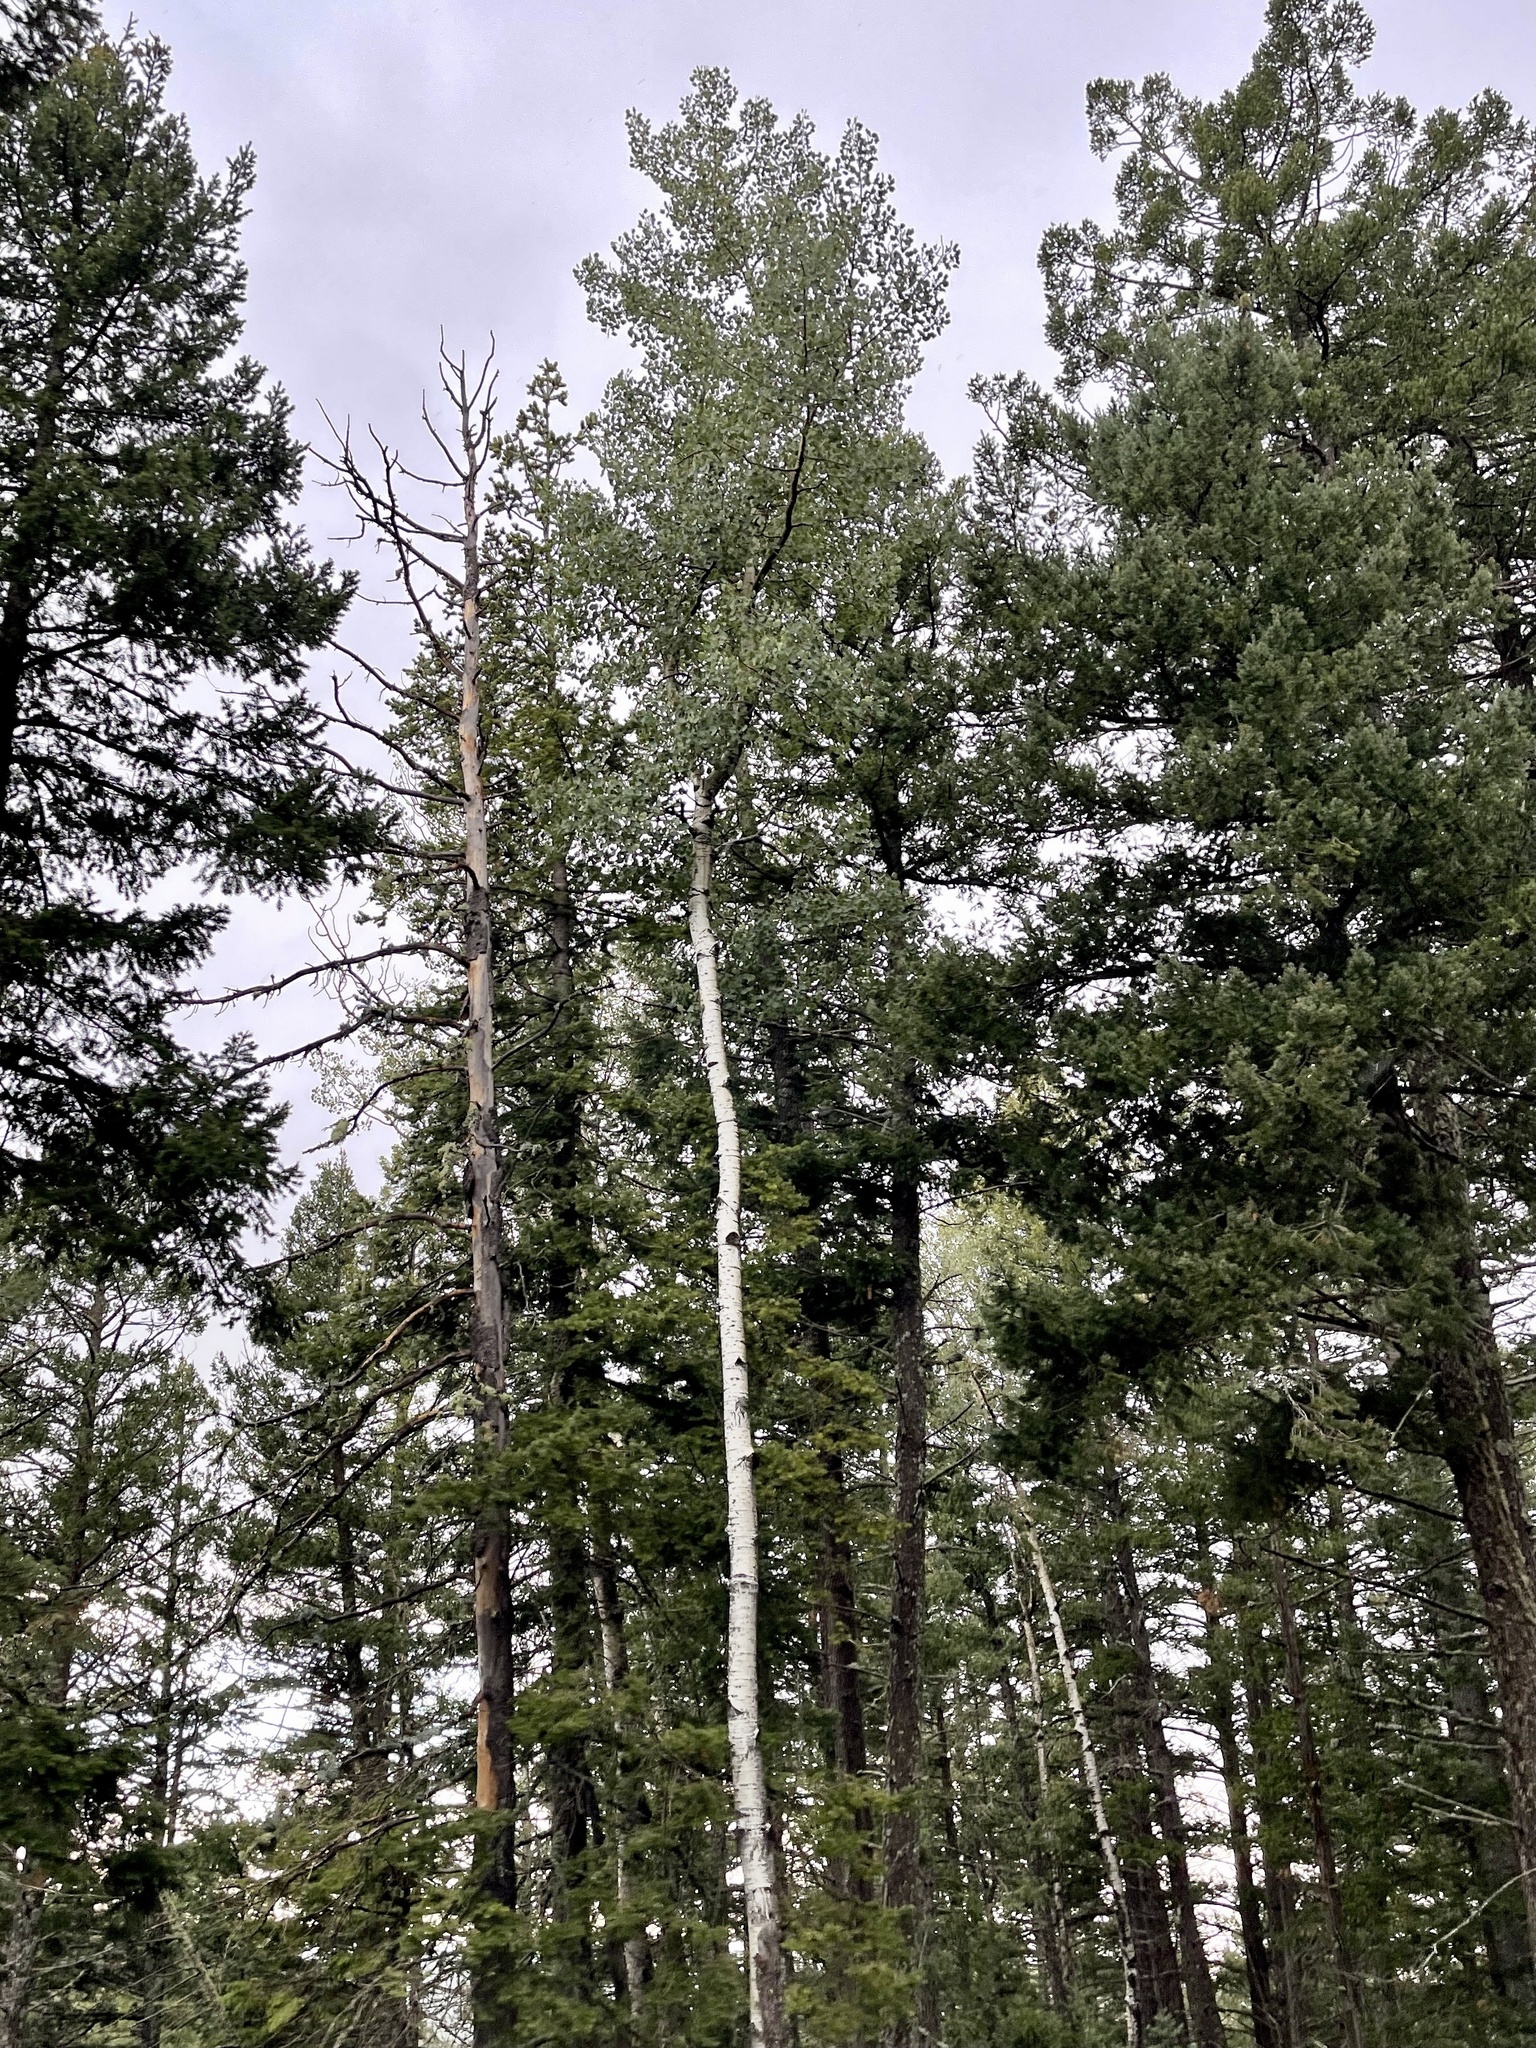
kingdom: Plantae
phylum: Tracheophyta
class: Magnoliopsida
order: Malpighiales
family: Salicaceae
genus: Populus
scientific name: Populus tremuloides
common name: Quaking aspen
